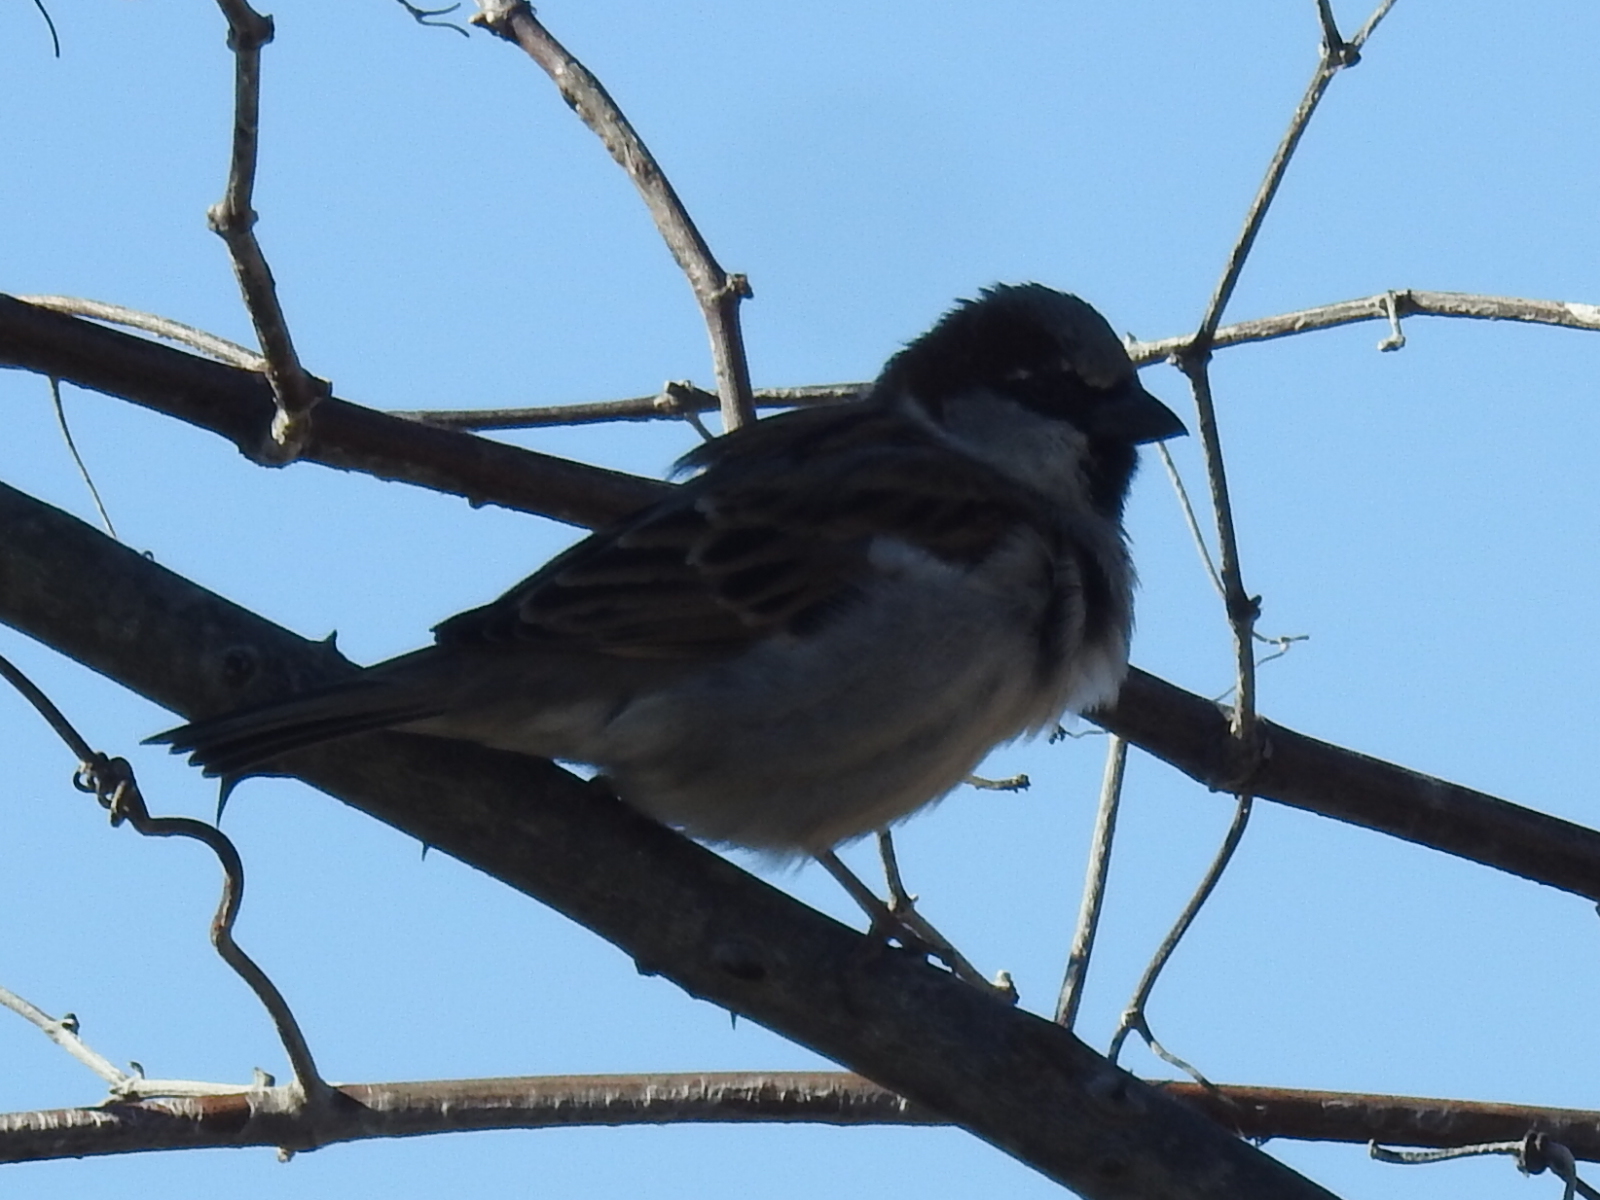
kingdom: Animalia
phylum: Chordata
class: Aves
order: Passeriformes
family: Passeridae
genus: Passer
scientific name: Passer domesticus
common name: House sparrow
